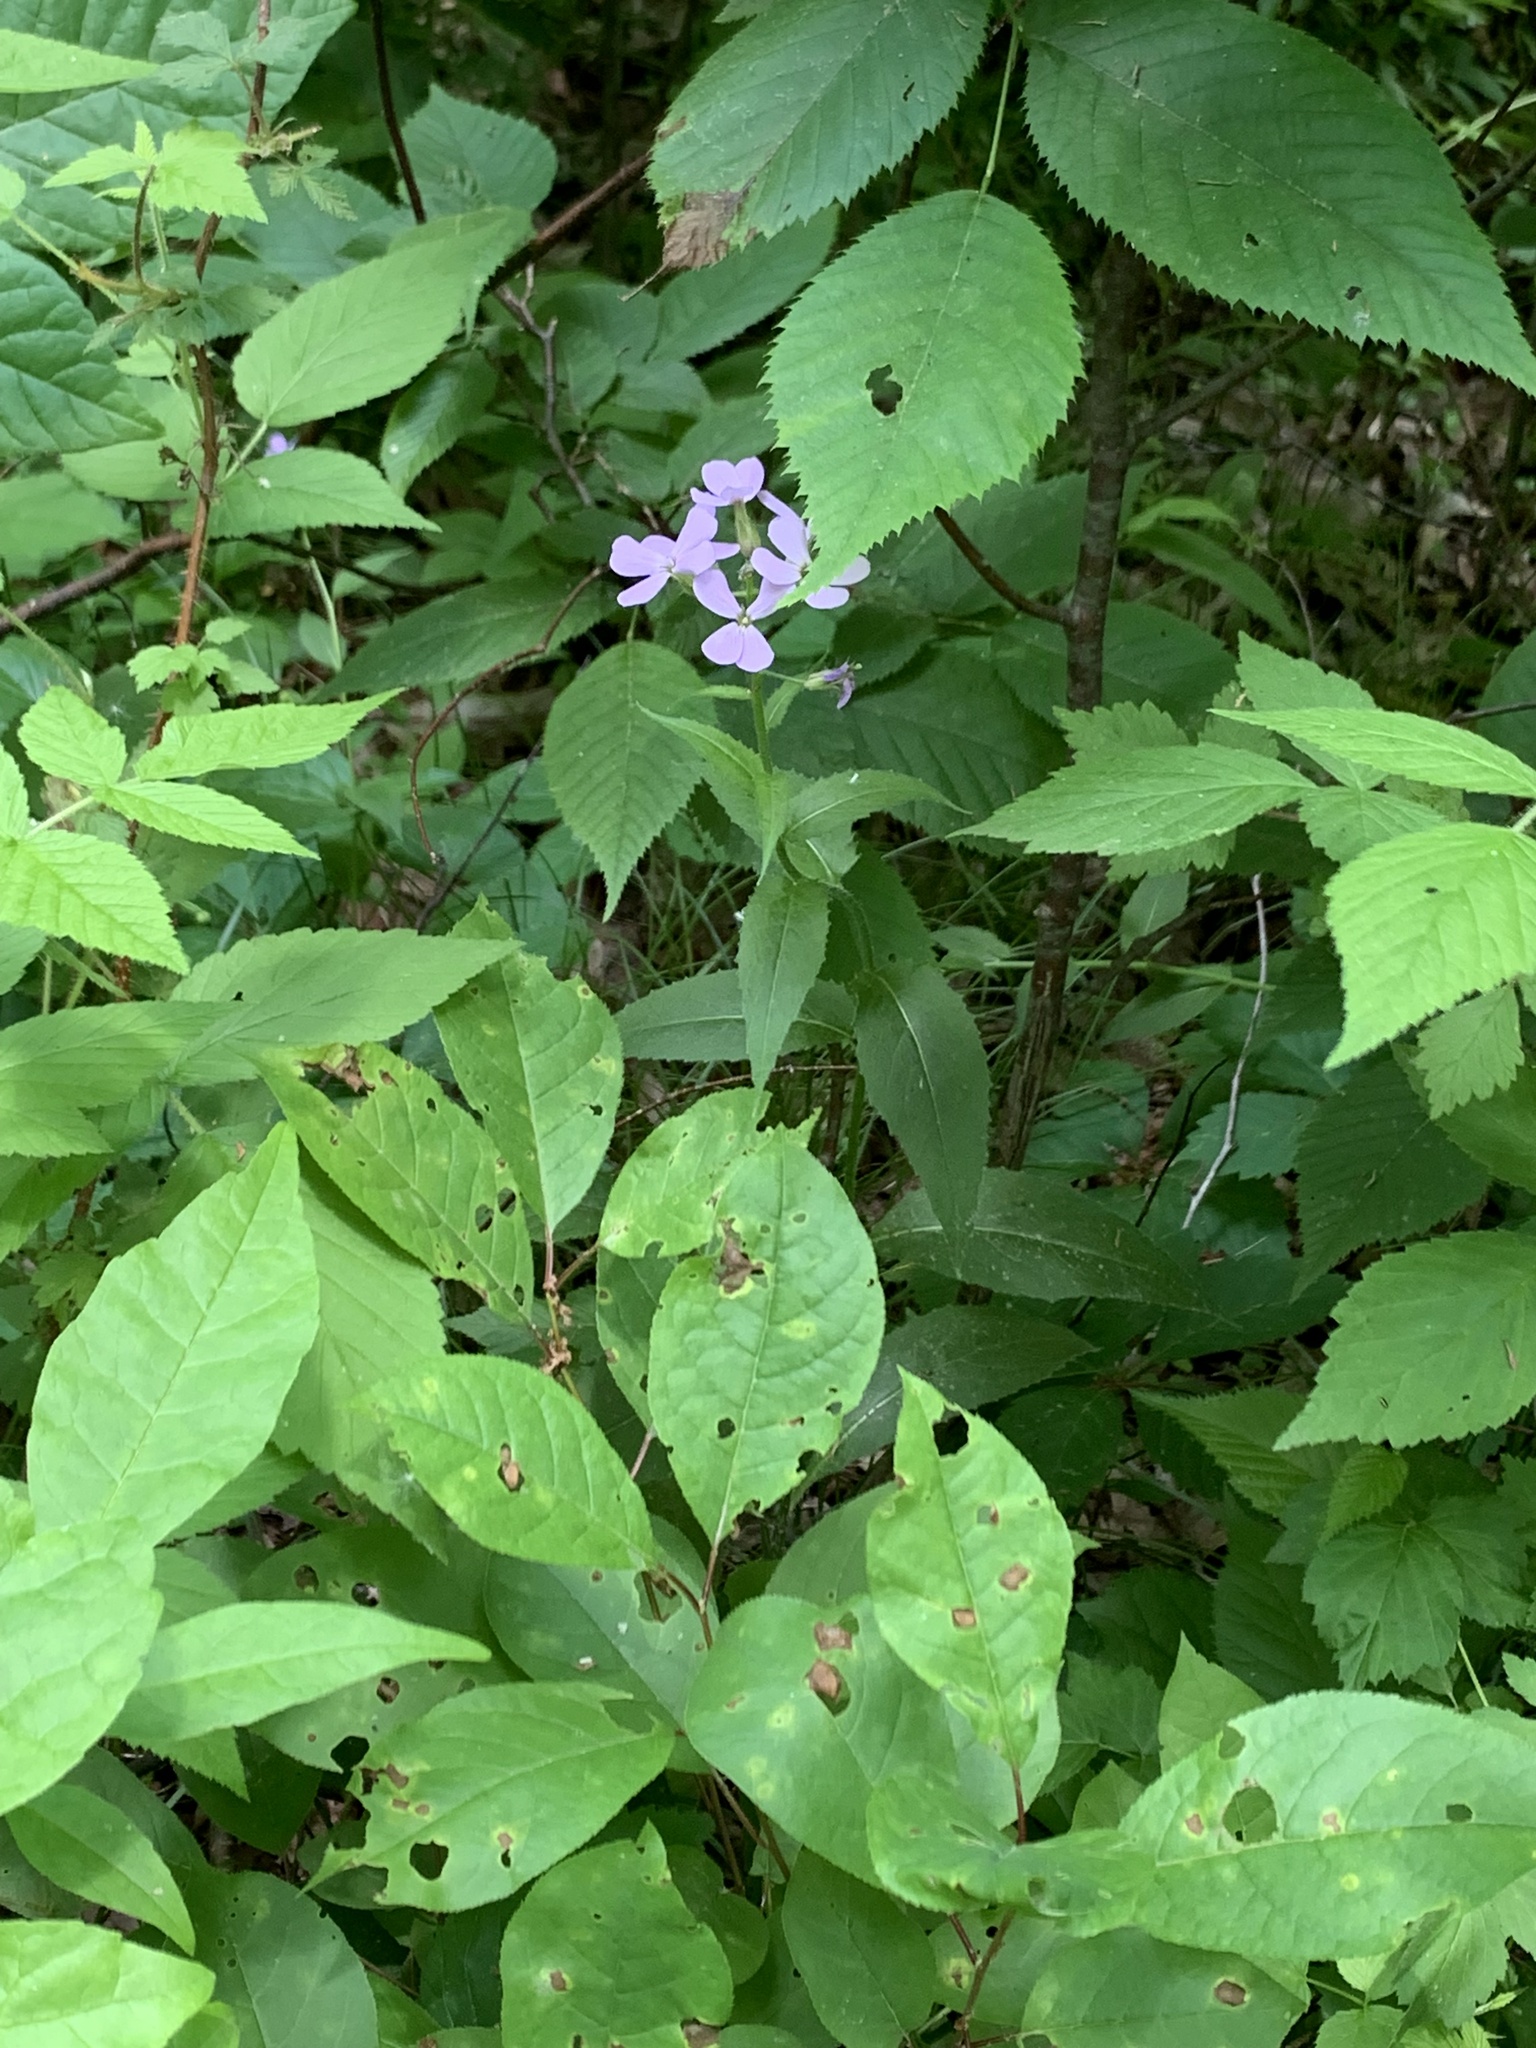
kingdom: Plantae
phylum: Tracheophyta
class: Magnoliopsida
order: Brassicales
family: Brassicaceae
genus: Hesperis
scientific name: Hesperis matronalis
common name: Dame's-violet
